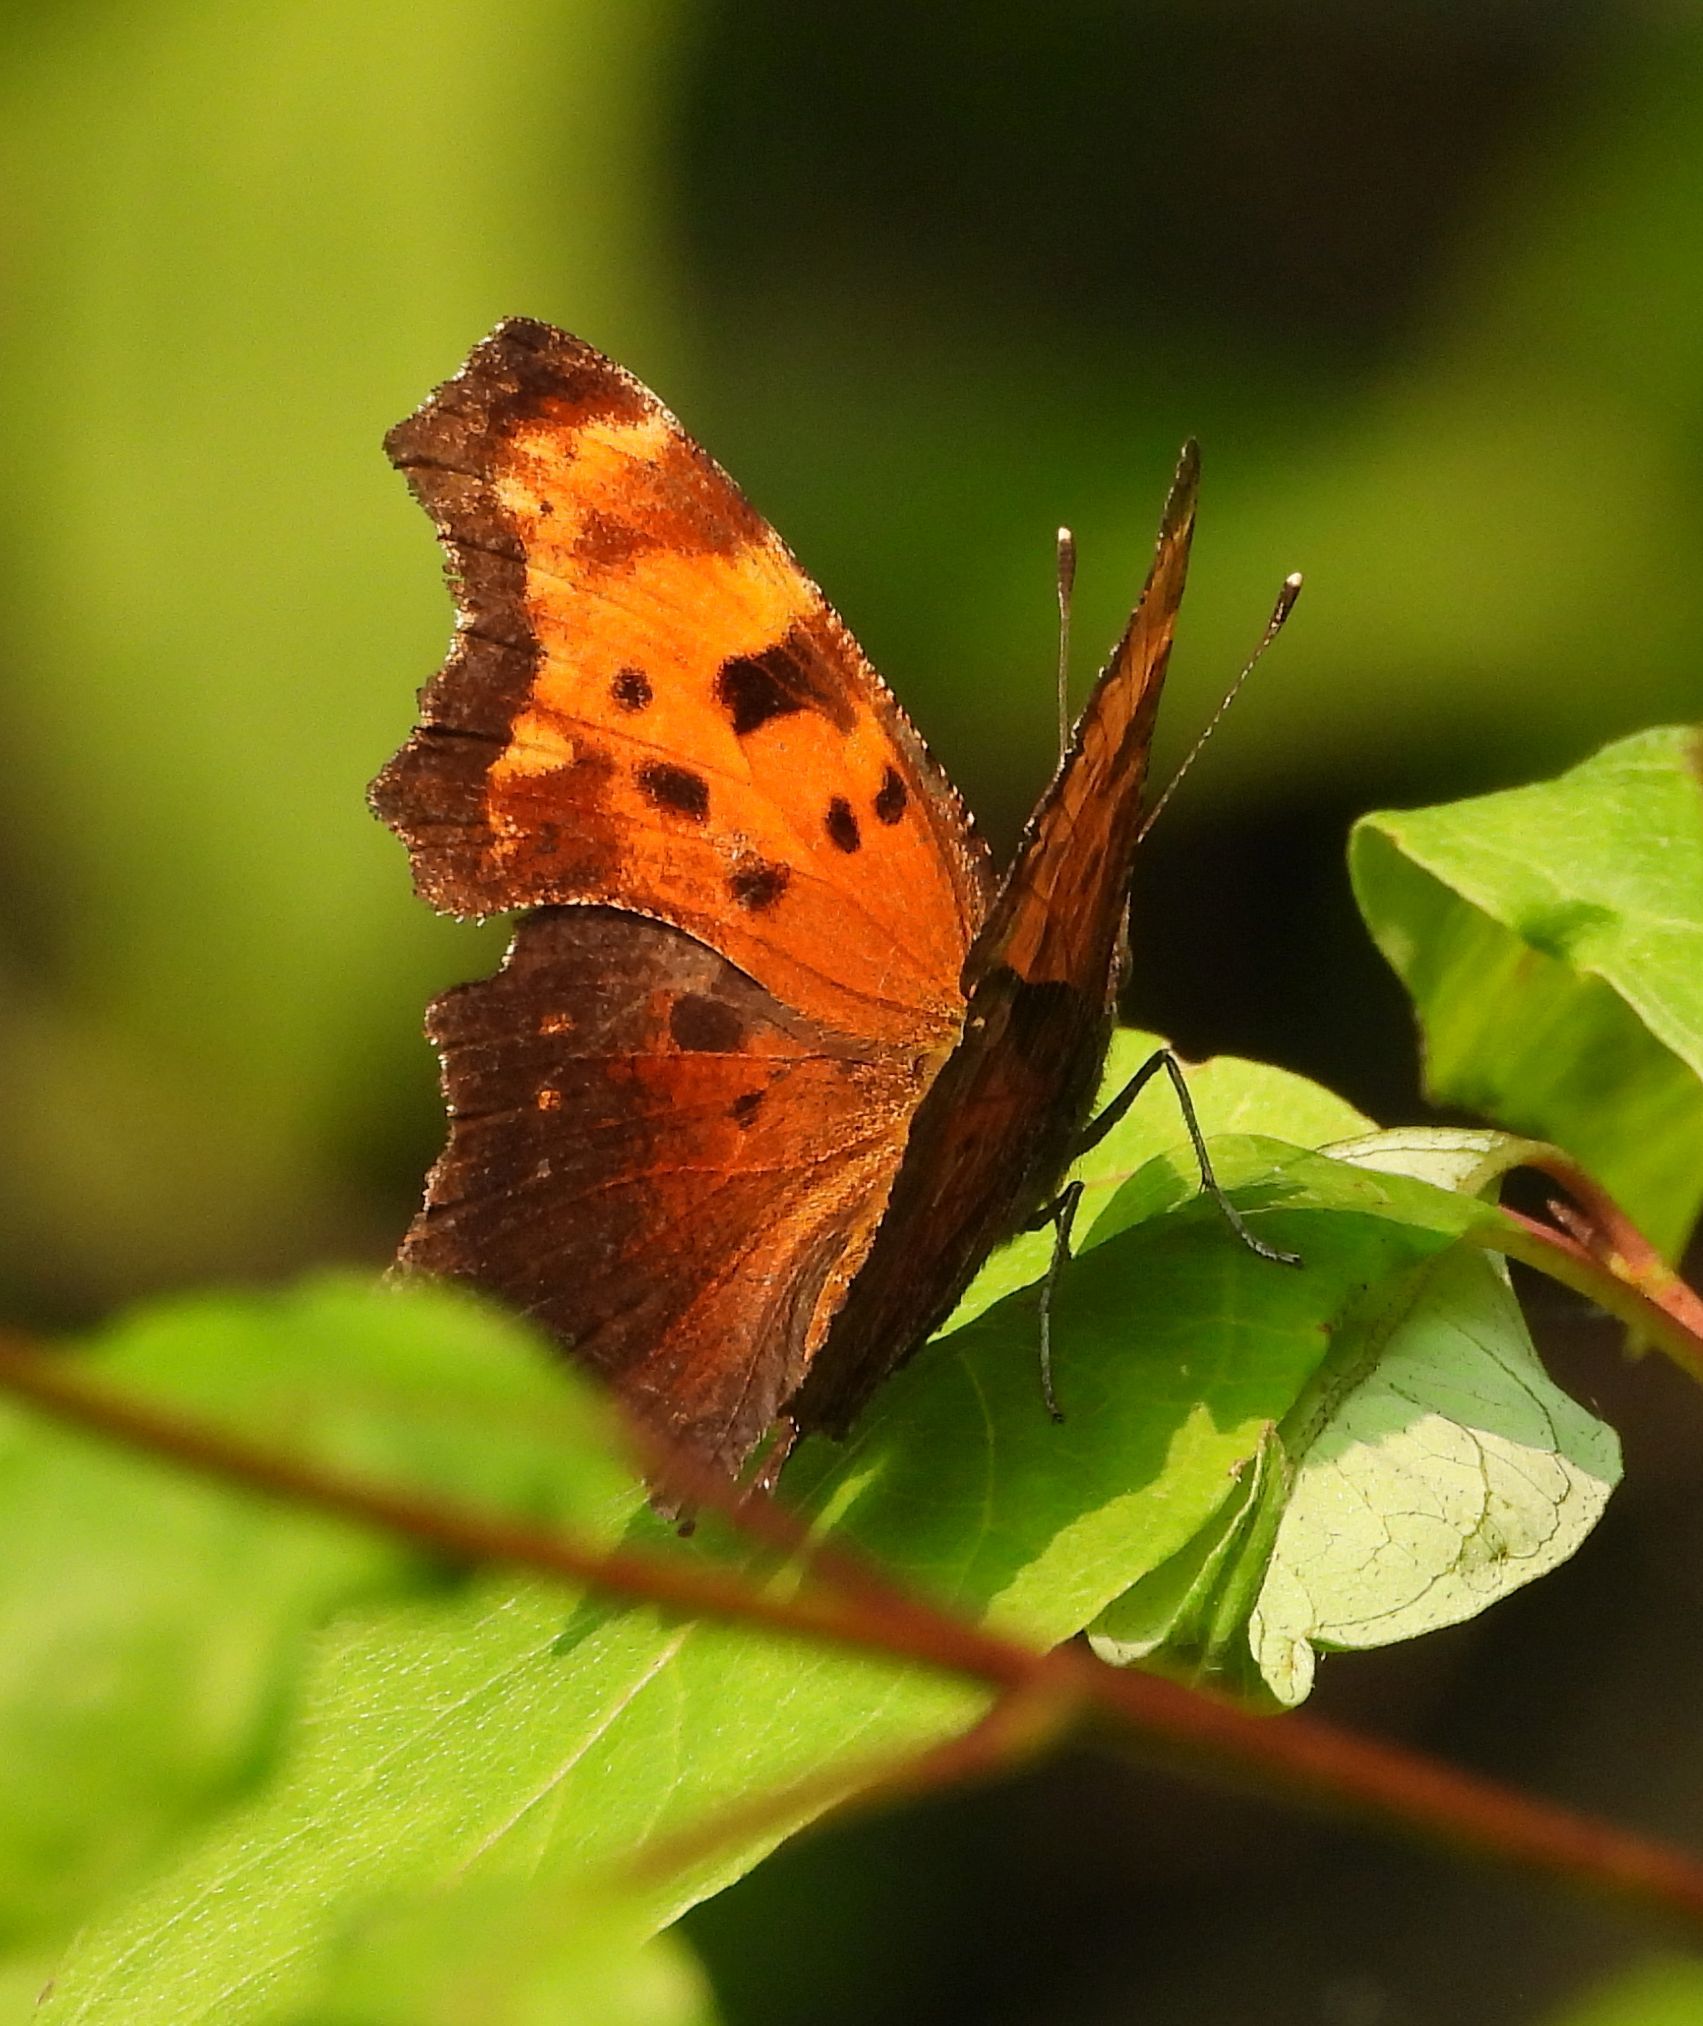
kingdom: Animalia
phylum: Arthropoda
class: Insecta
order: Lepidoptera
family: Nymphalidae
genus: Polygonia
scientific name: Polygonia progne
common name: Gray comma
